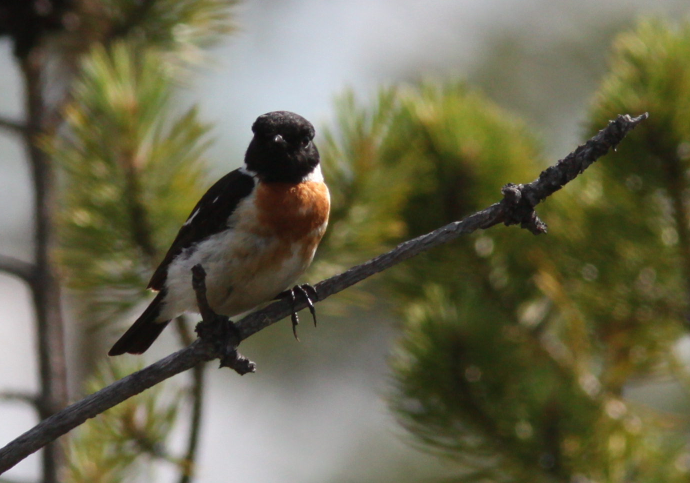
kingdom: Animalia
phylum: Chordata
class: Aves
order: Passeriformes
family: Muscicapidae
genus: Saxicola
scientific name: Saxicola maurus
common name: Siberian stonechat
